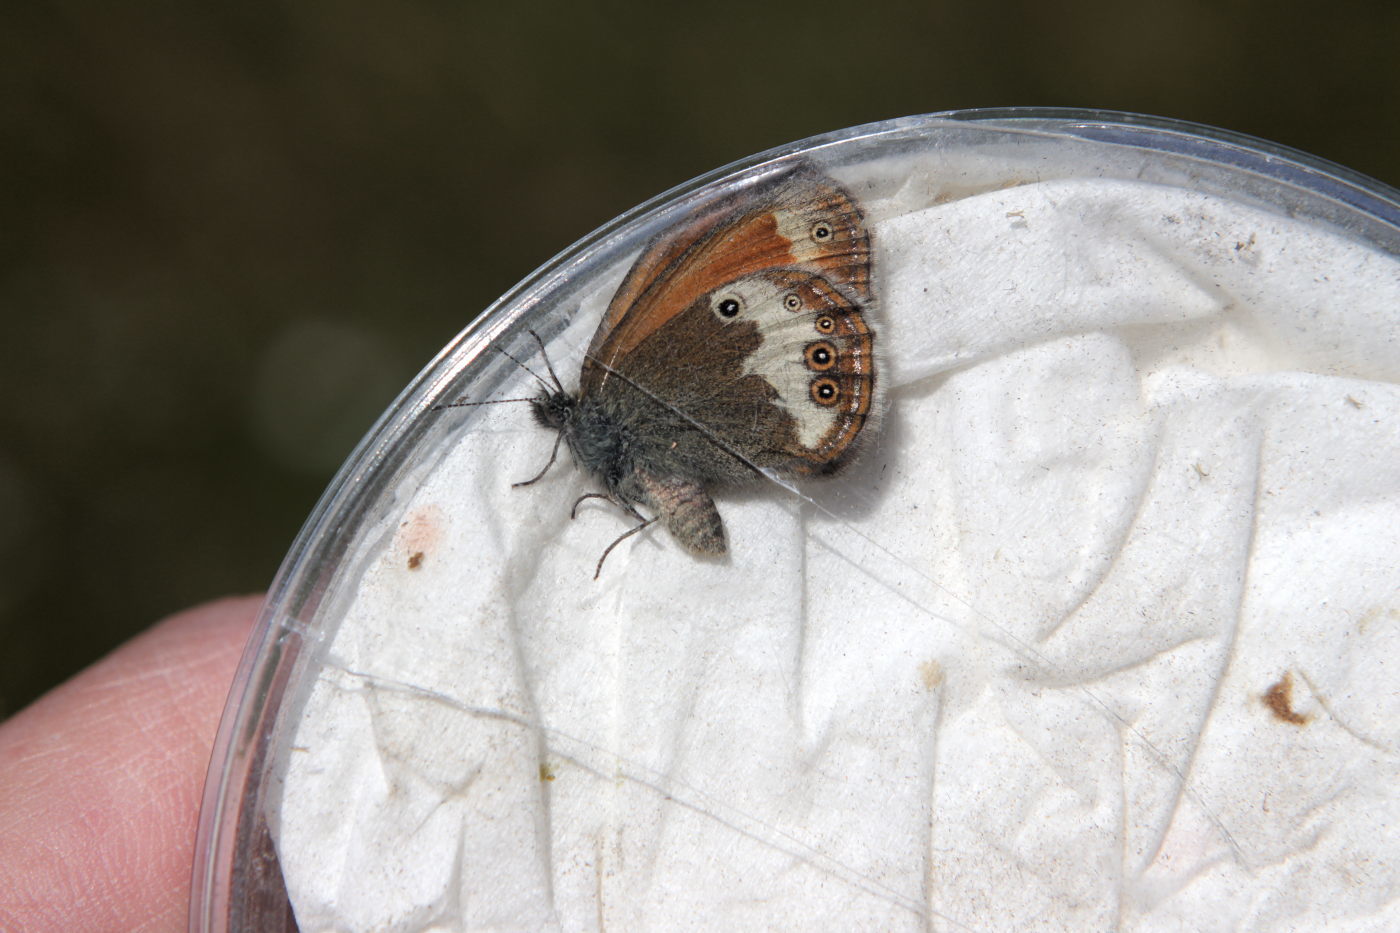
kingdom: Animalia
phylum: Arthropoda
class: Insecta
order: Lepidoptera
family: Nymphalidae
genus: Coenonympha
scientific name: Coenonympha arcania
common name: Pearly heath
